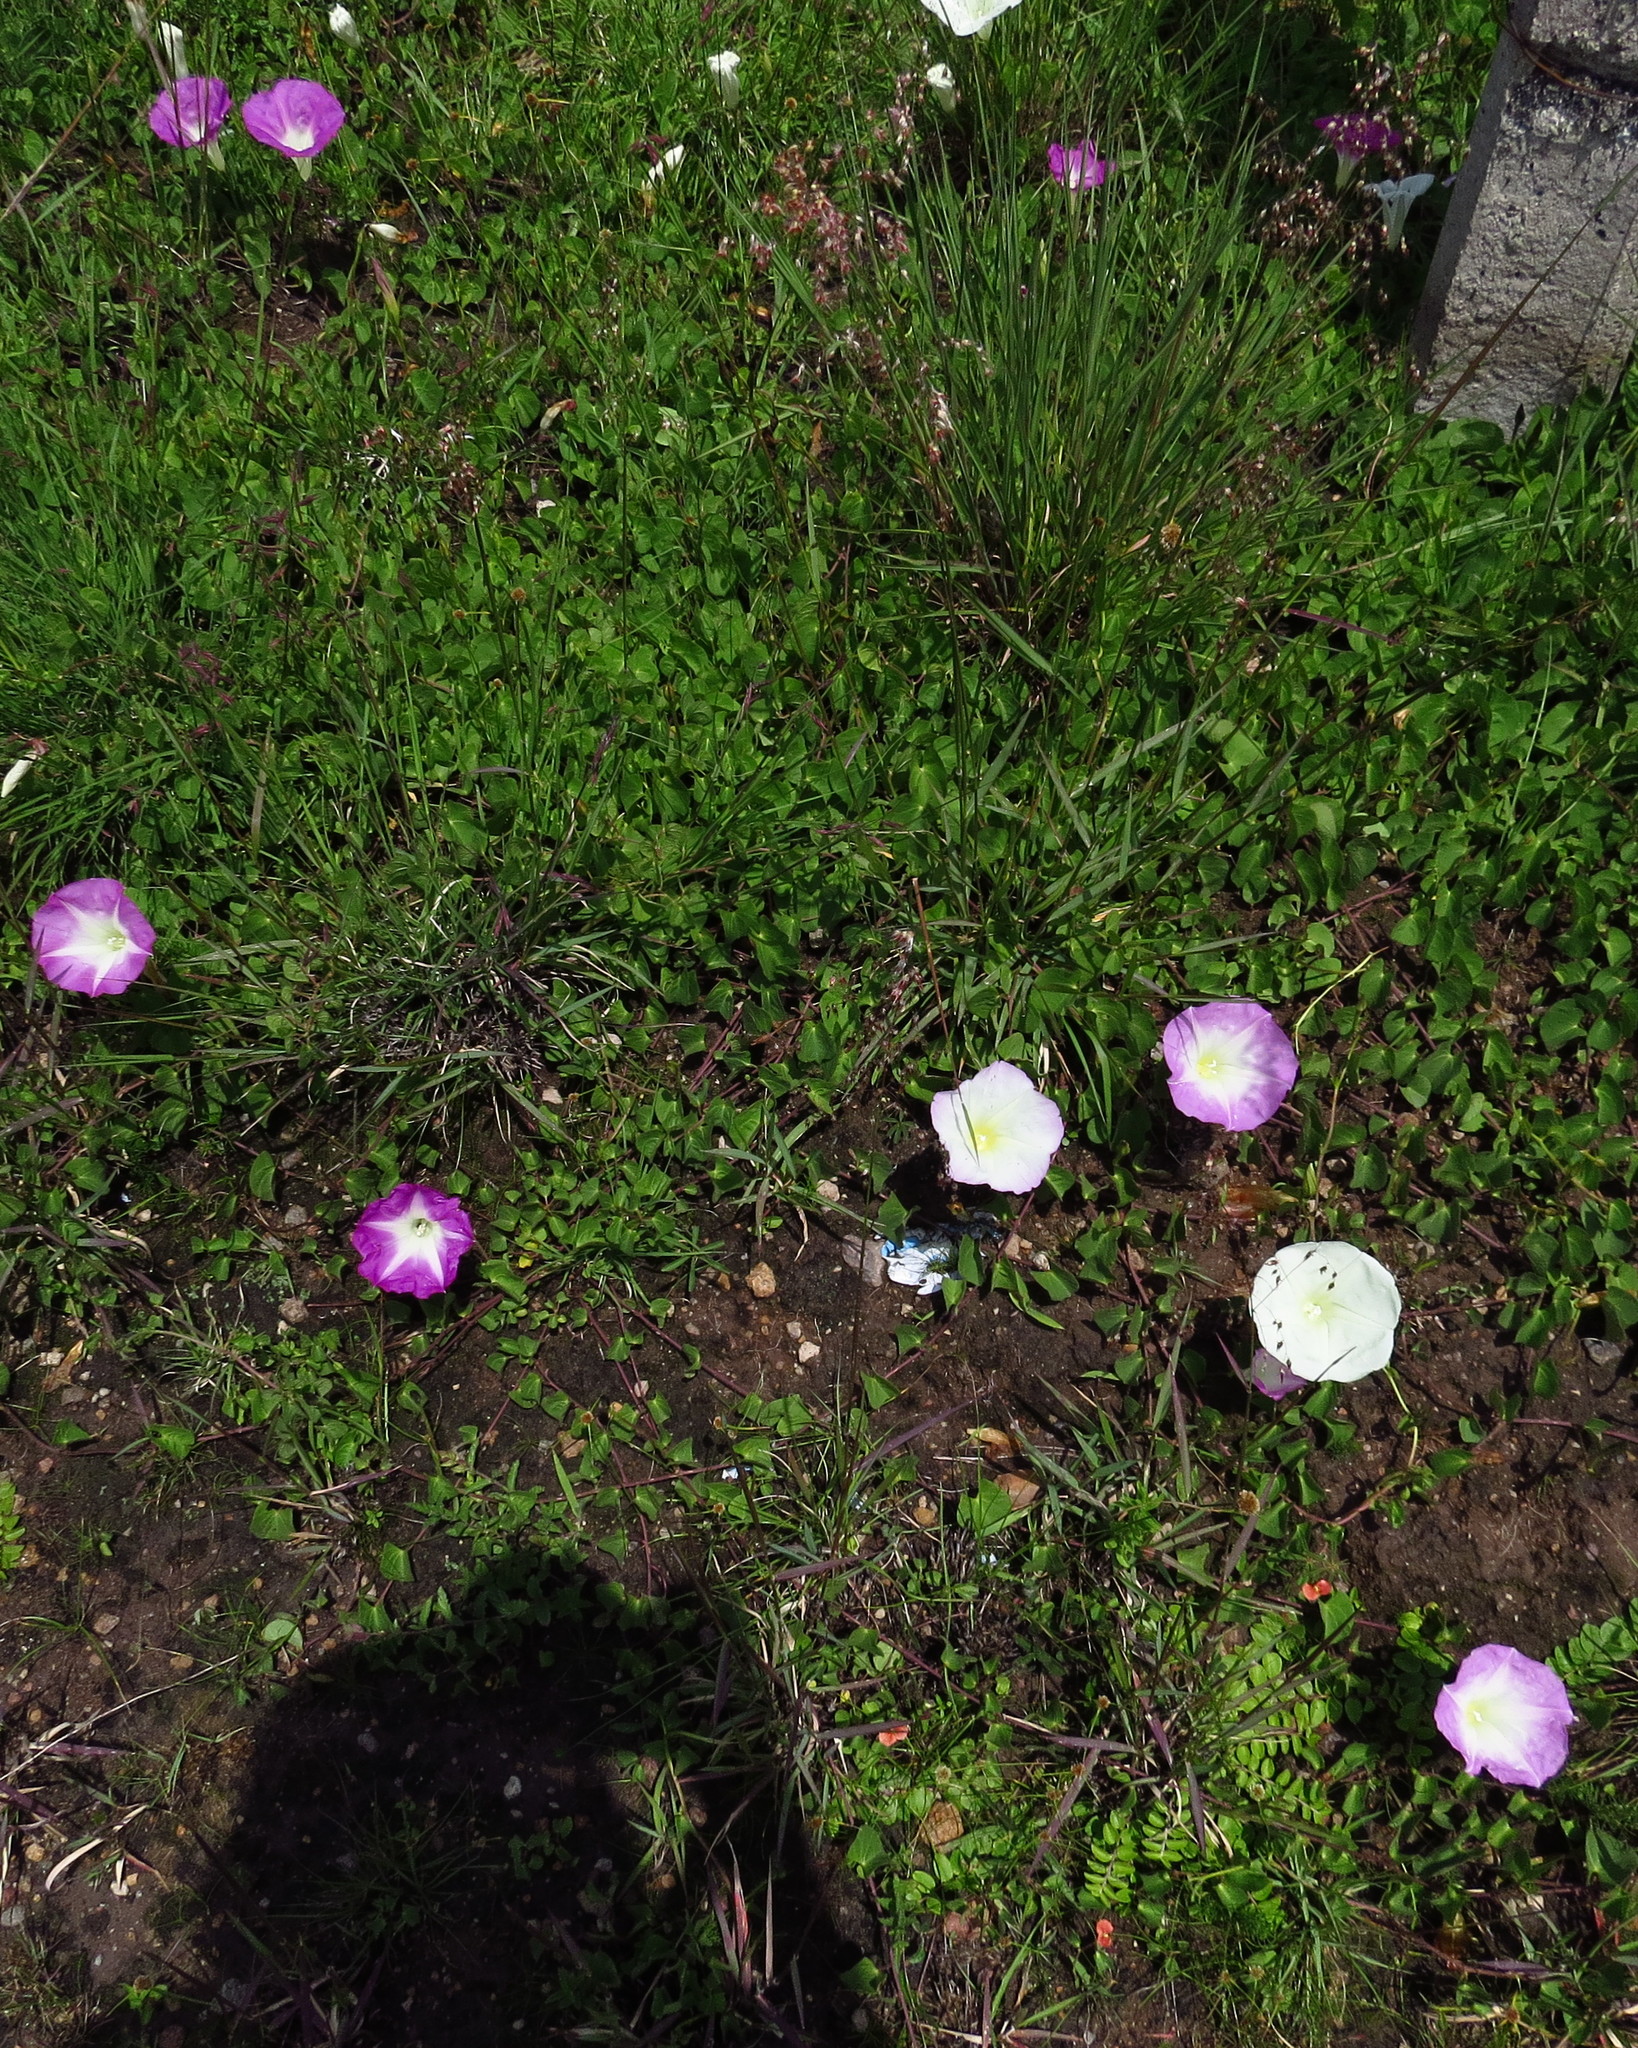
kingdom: Plantae
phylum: Tracheophyta
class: Magnoliopsida
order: Solanales
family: Convolvulaceae
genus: Ipomoea
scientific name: Ipomoea hartwegii
